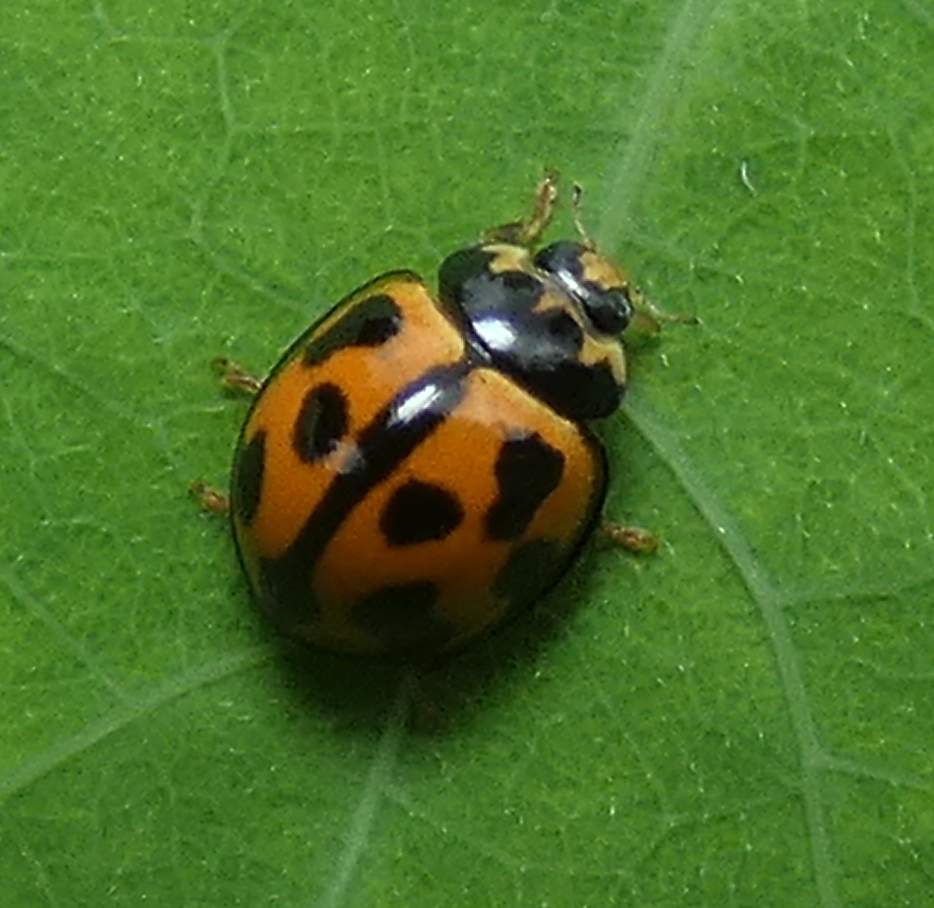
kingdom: Animalia
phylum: Arthropoda
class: Insecta
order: Coleoptera
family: Coccinellidae
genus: Coelophora
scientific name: Coelophora inaequalis
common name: Common australian lady beetle
